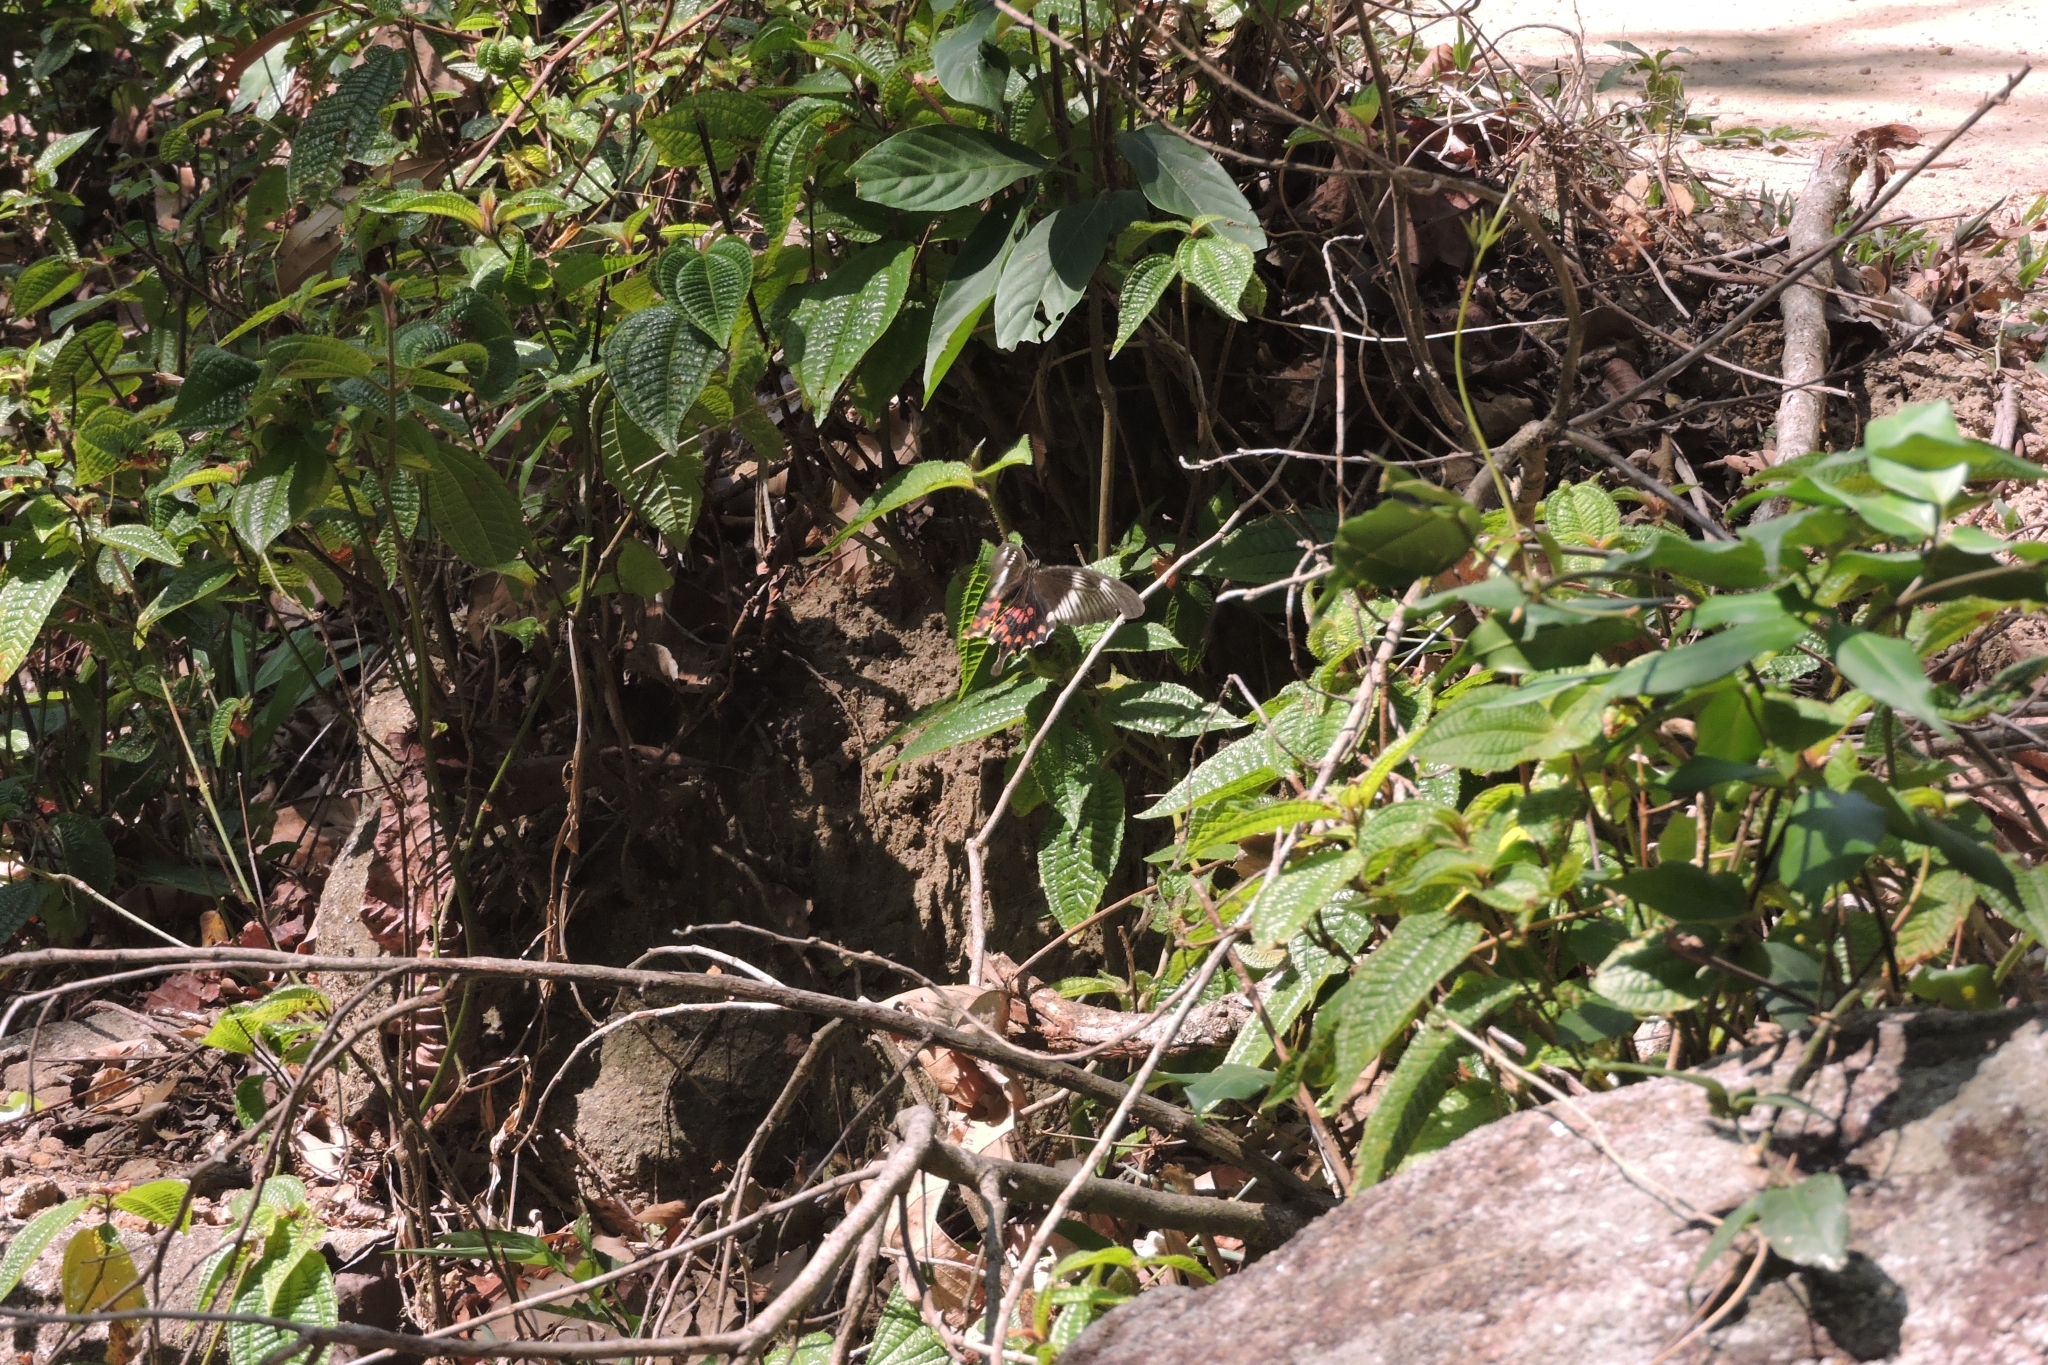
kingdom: Animalia
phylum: Arthropoda
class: Insecta
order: Lepidoptera
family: Papilionidae
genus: Pachliopta
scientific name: Pachliopta hector
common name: Crimson rose
